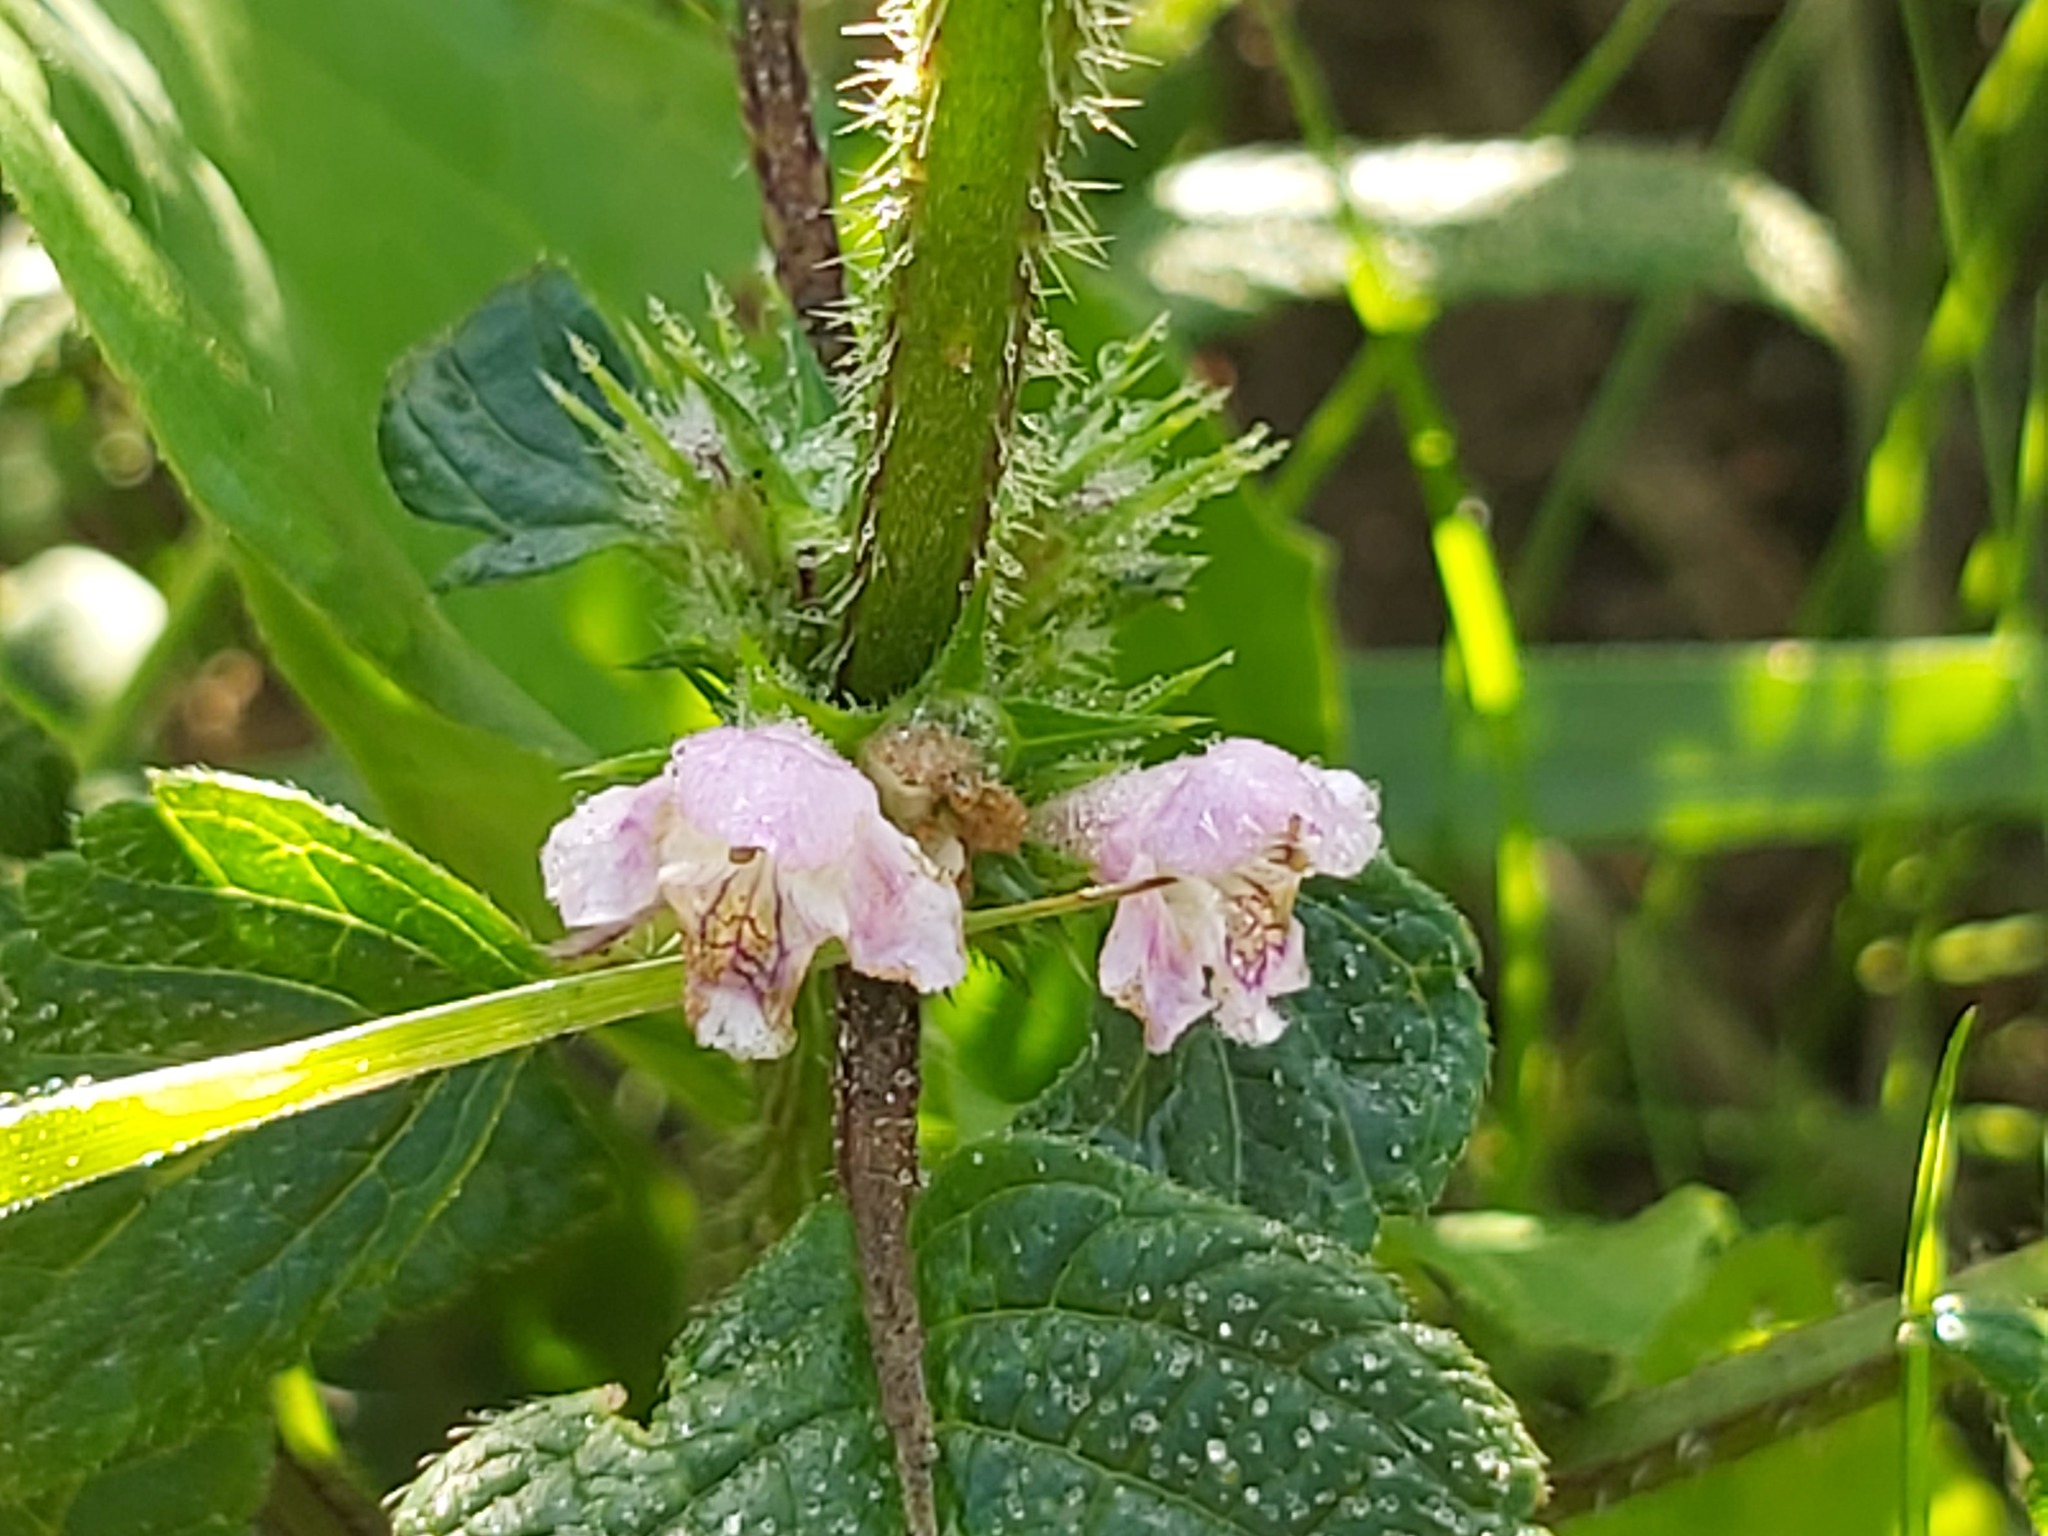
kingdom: Plantae
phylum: Tracheophyta
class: Magnoliopsida
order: Lamiales
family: Lamiaceae
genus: Galeopsis
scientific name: Galeopsis tetrahit
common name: Common hemp-nettle
